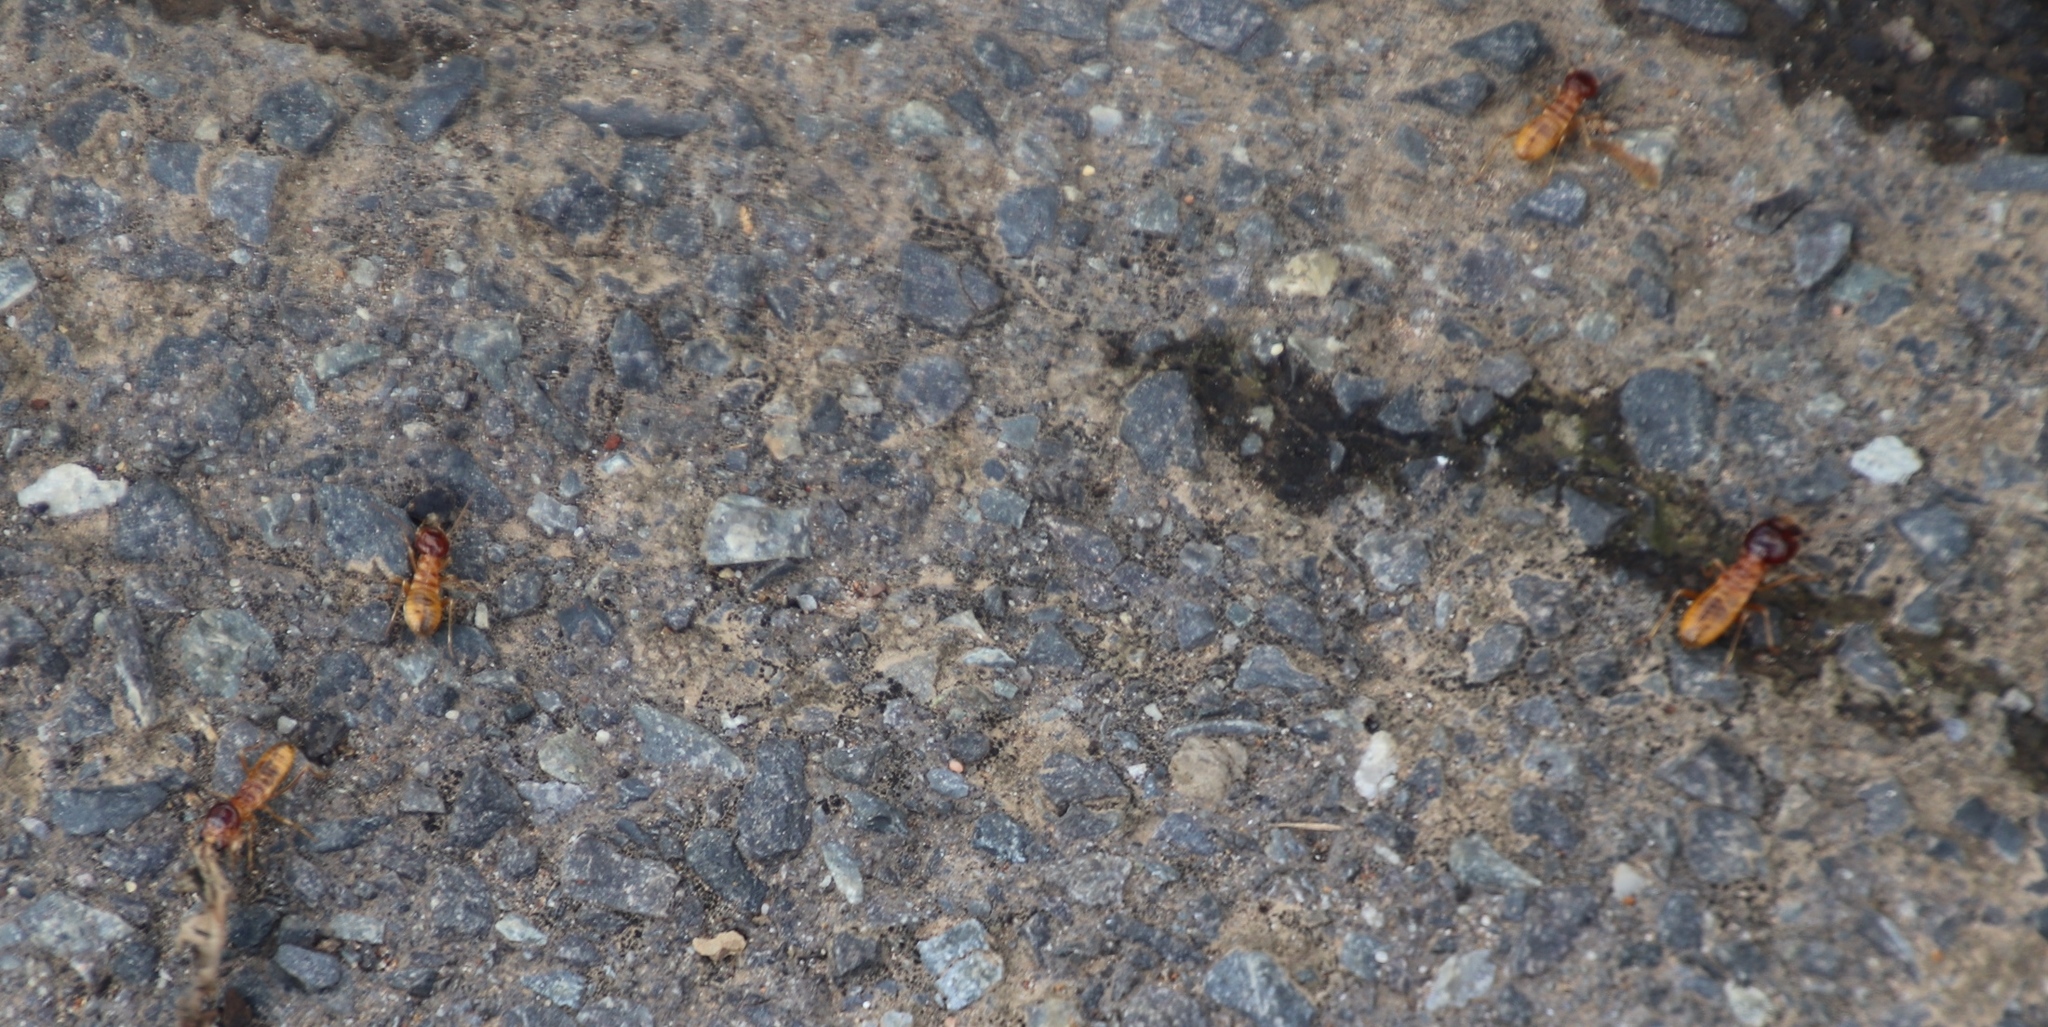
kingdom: Animalia
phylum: Arthropoda
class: Insecta
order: Blattodea
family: Hodotermitidae
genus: Microhodotermes
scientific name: Microhodotermes viator
